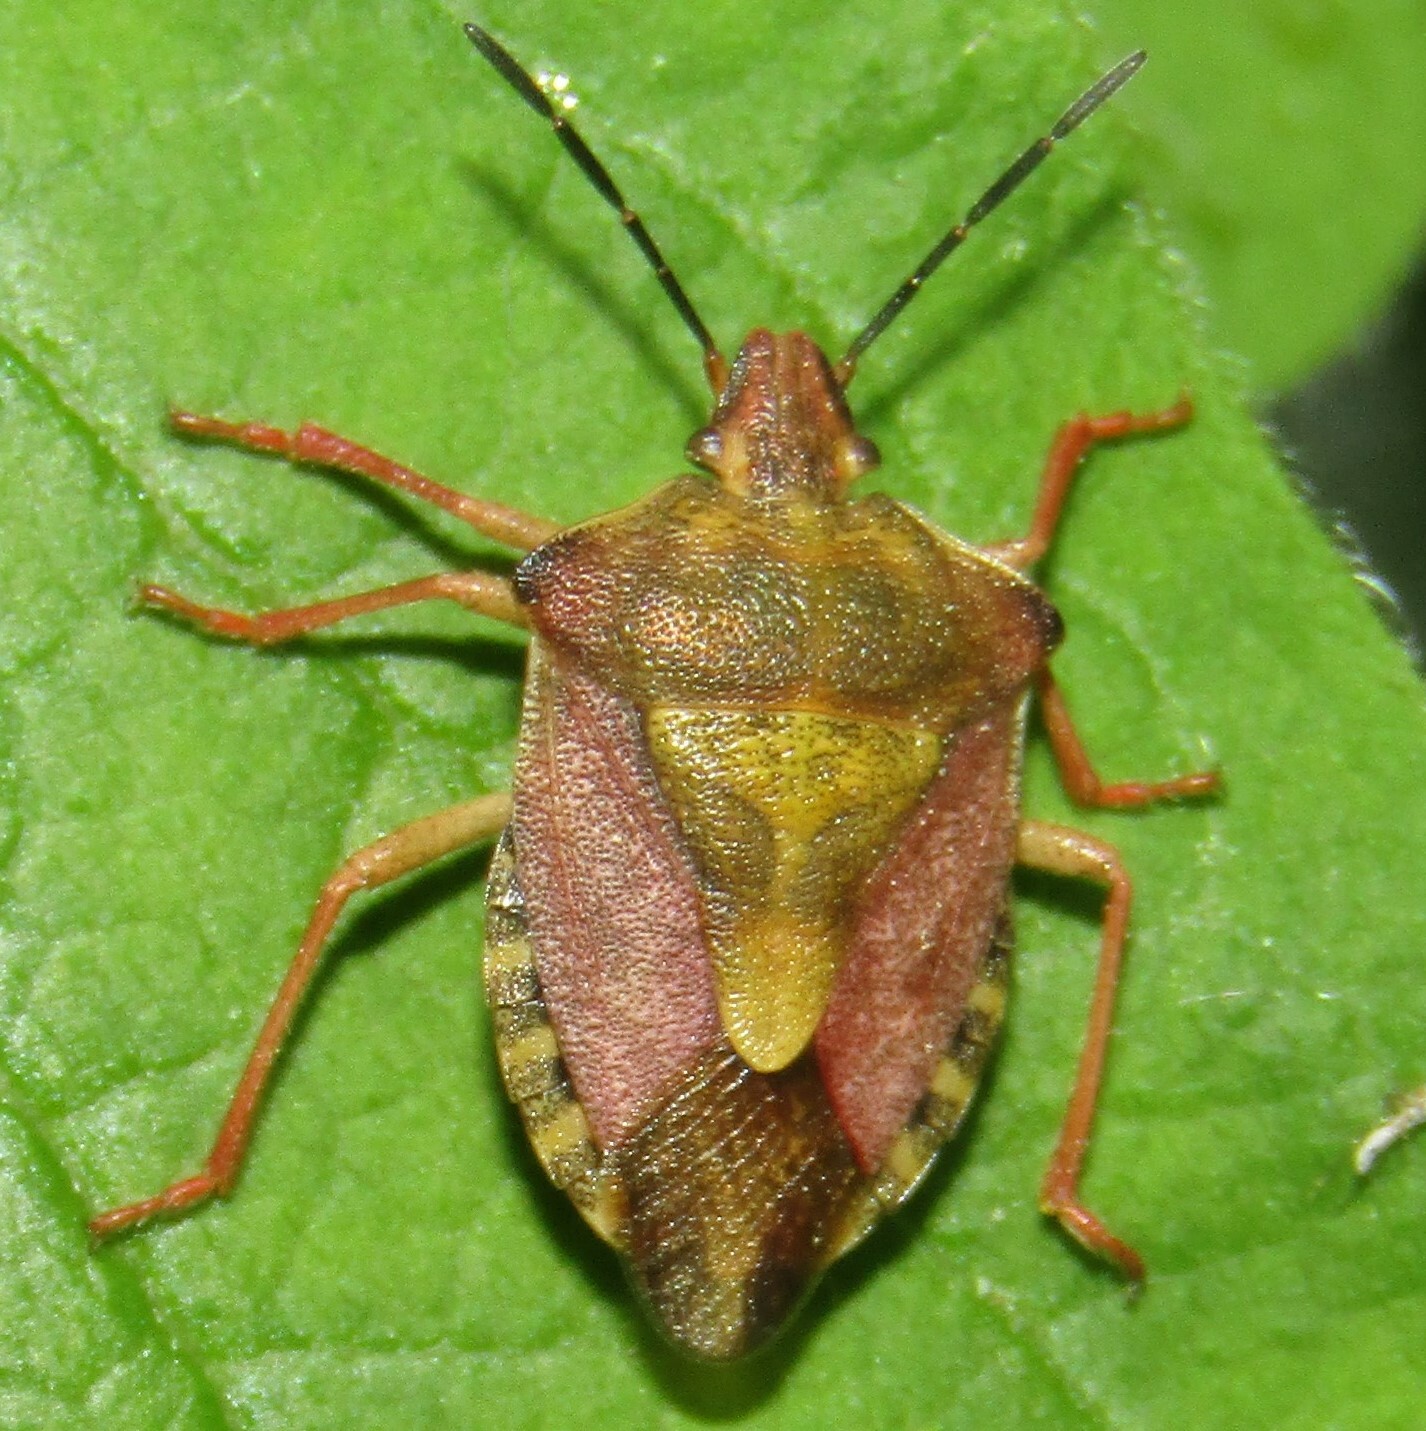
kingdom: Animalia
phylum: Arthropoda
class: Insecta
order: Hemiptera
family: Pentatomidae
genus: Carpocoris
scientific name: Carpocoris purpureipennis
